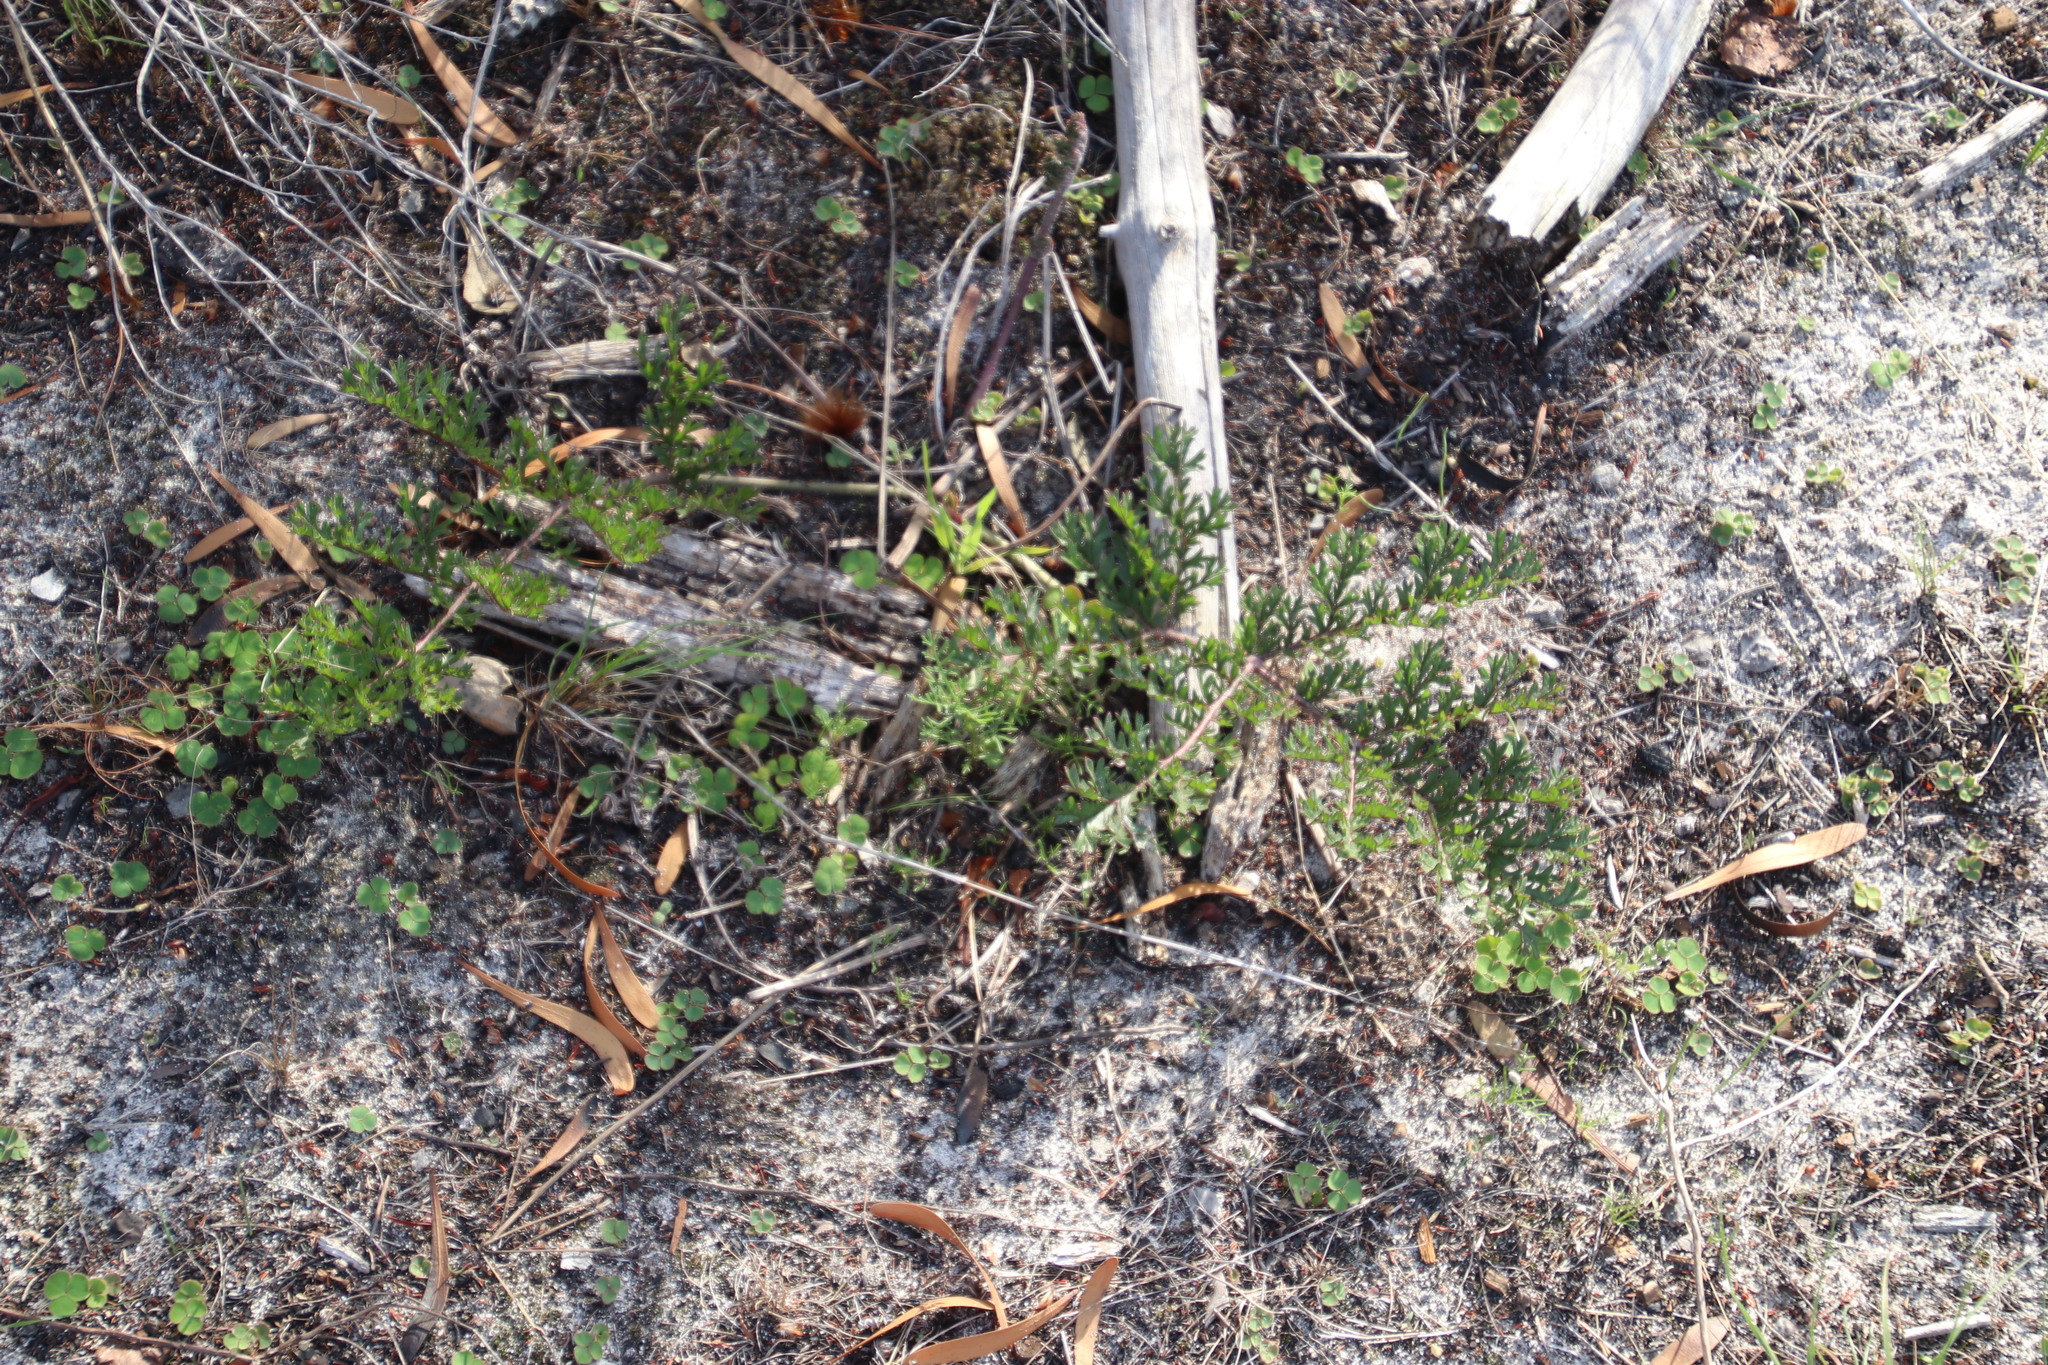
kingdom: Plantae
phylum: Tracheophyta
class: Magnoliopsida
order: Geraniales
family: Geraniaceae
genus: Pelargonium
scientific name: Pelargonium triste
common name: Night-scent pelargonium
